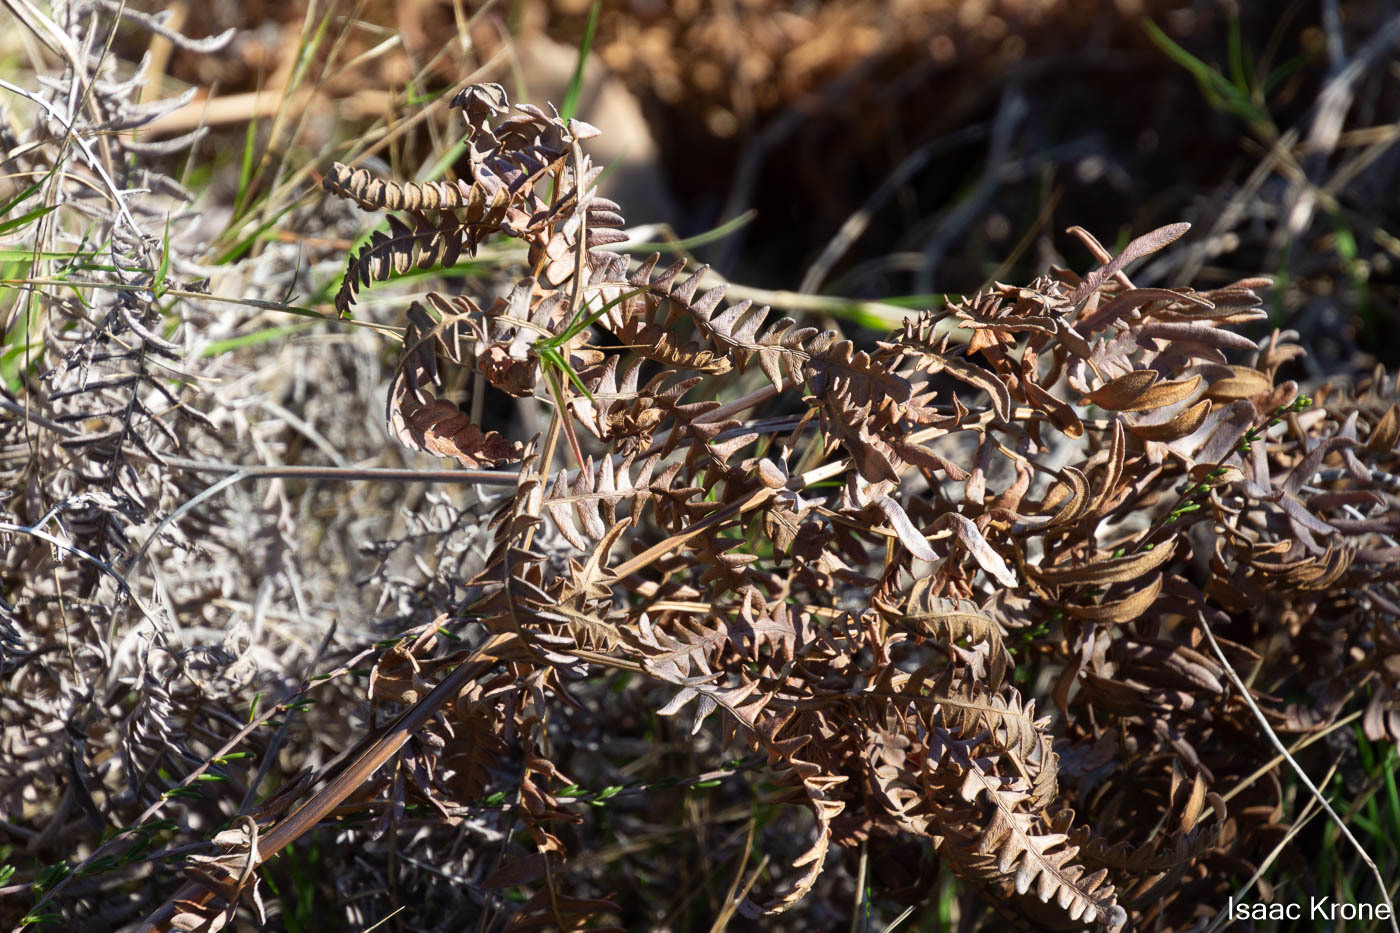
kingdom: Plantae
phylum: Tracheophyta
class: Polypodiopsida
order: Polypodiales
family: Dennstaedtiaceae
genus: Pteridium
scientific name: Pteridium aquilinum
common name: Bracken
